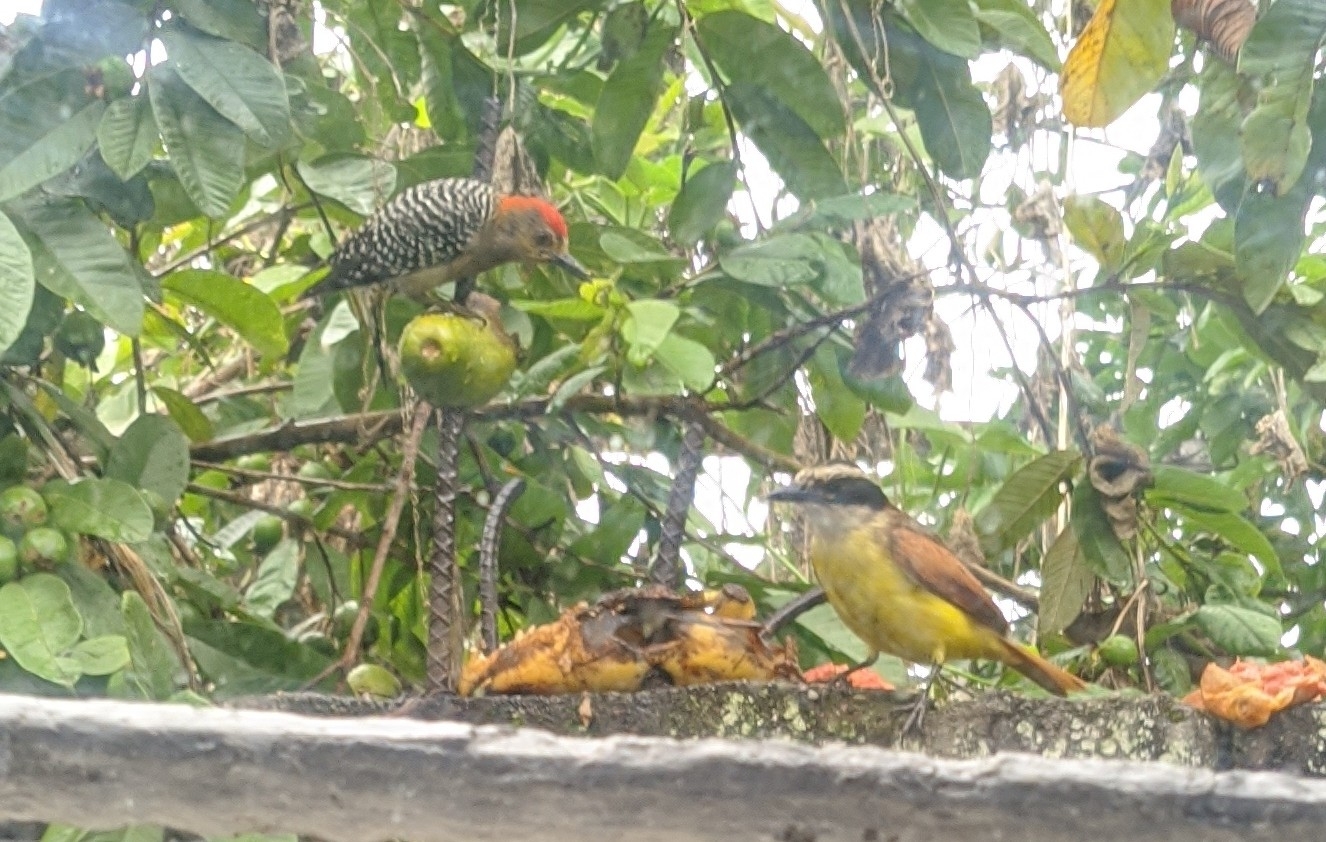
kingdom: Animalia
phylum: Chordata
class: Aves
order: Passeriformes
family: Tyrannidae
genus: Pitangus
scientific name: Pitangus sulphuratus
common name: Great kiskadee
